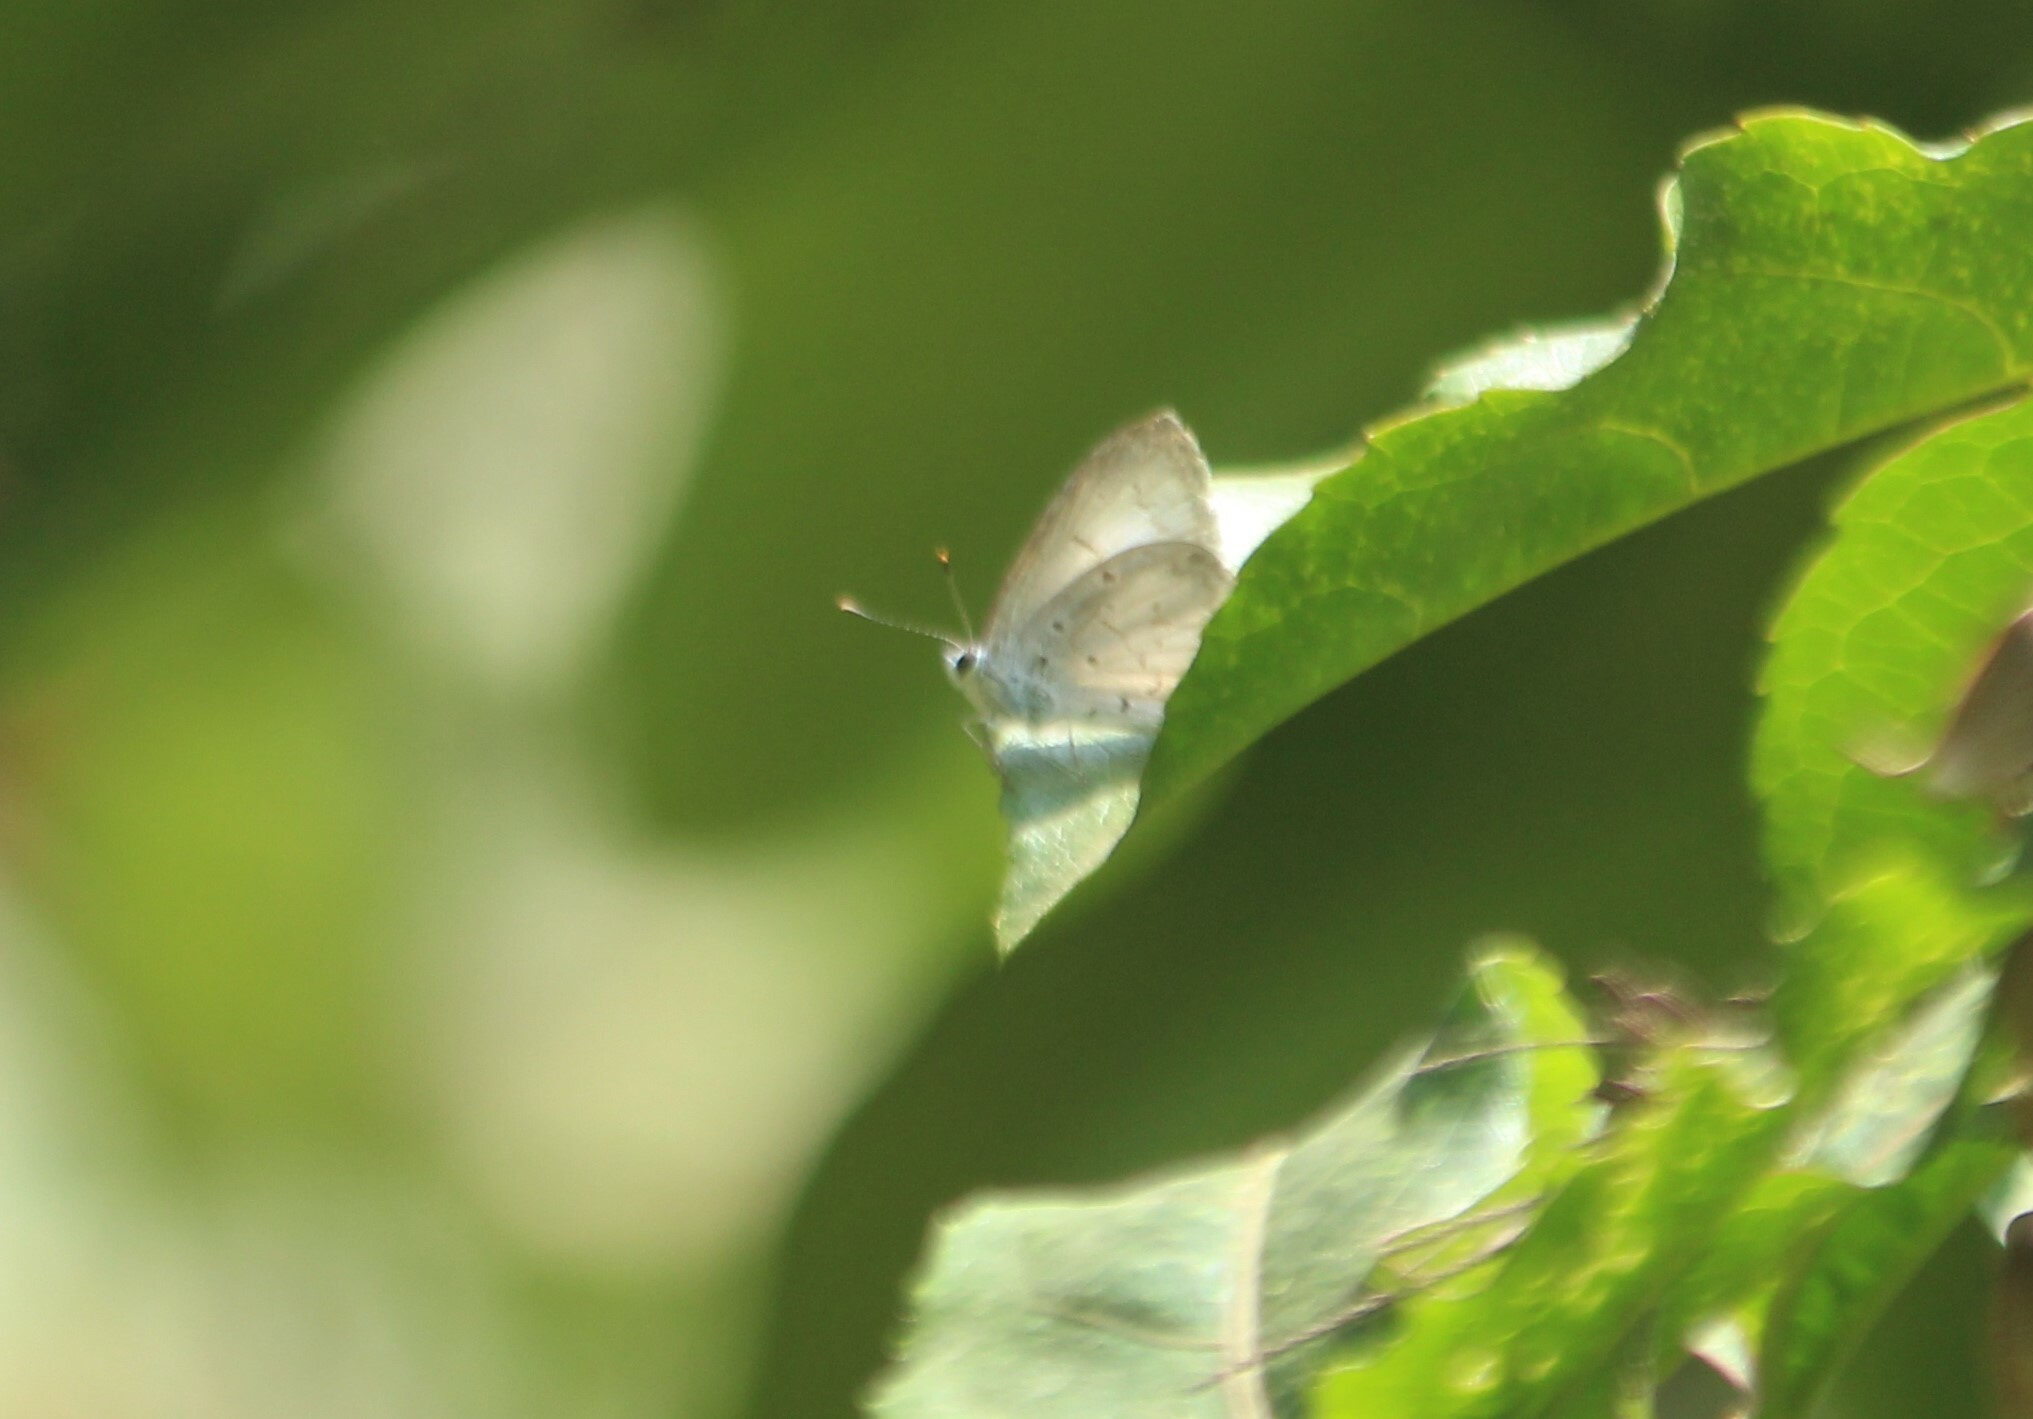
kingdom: Animalia
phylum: Arthropoda
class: Insecta
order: Lepidoptera
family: Lycaenidae
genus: Acytolepis
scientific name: Acytolepis puspa
